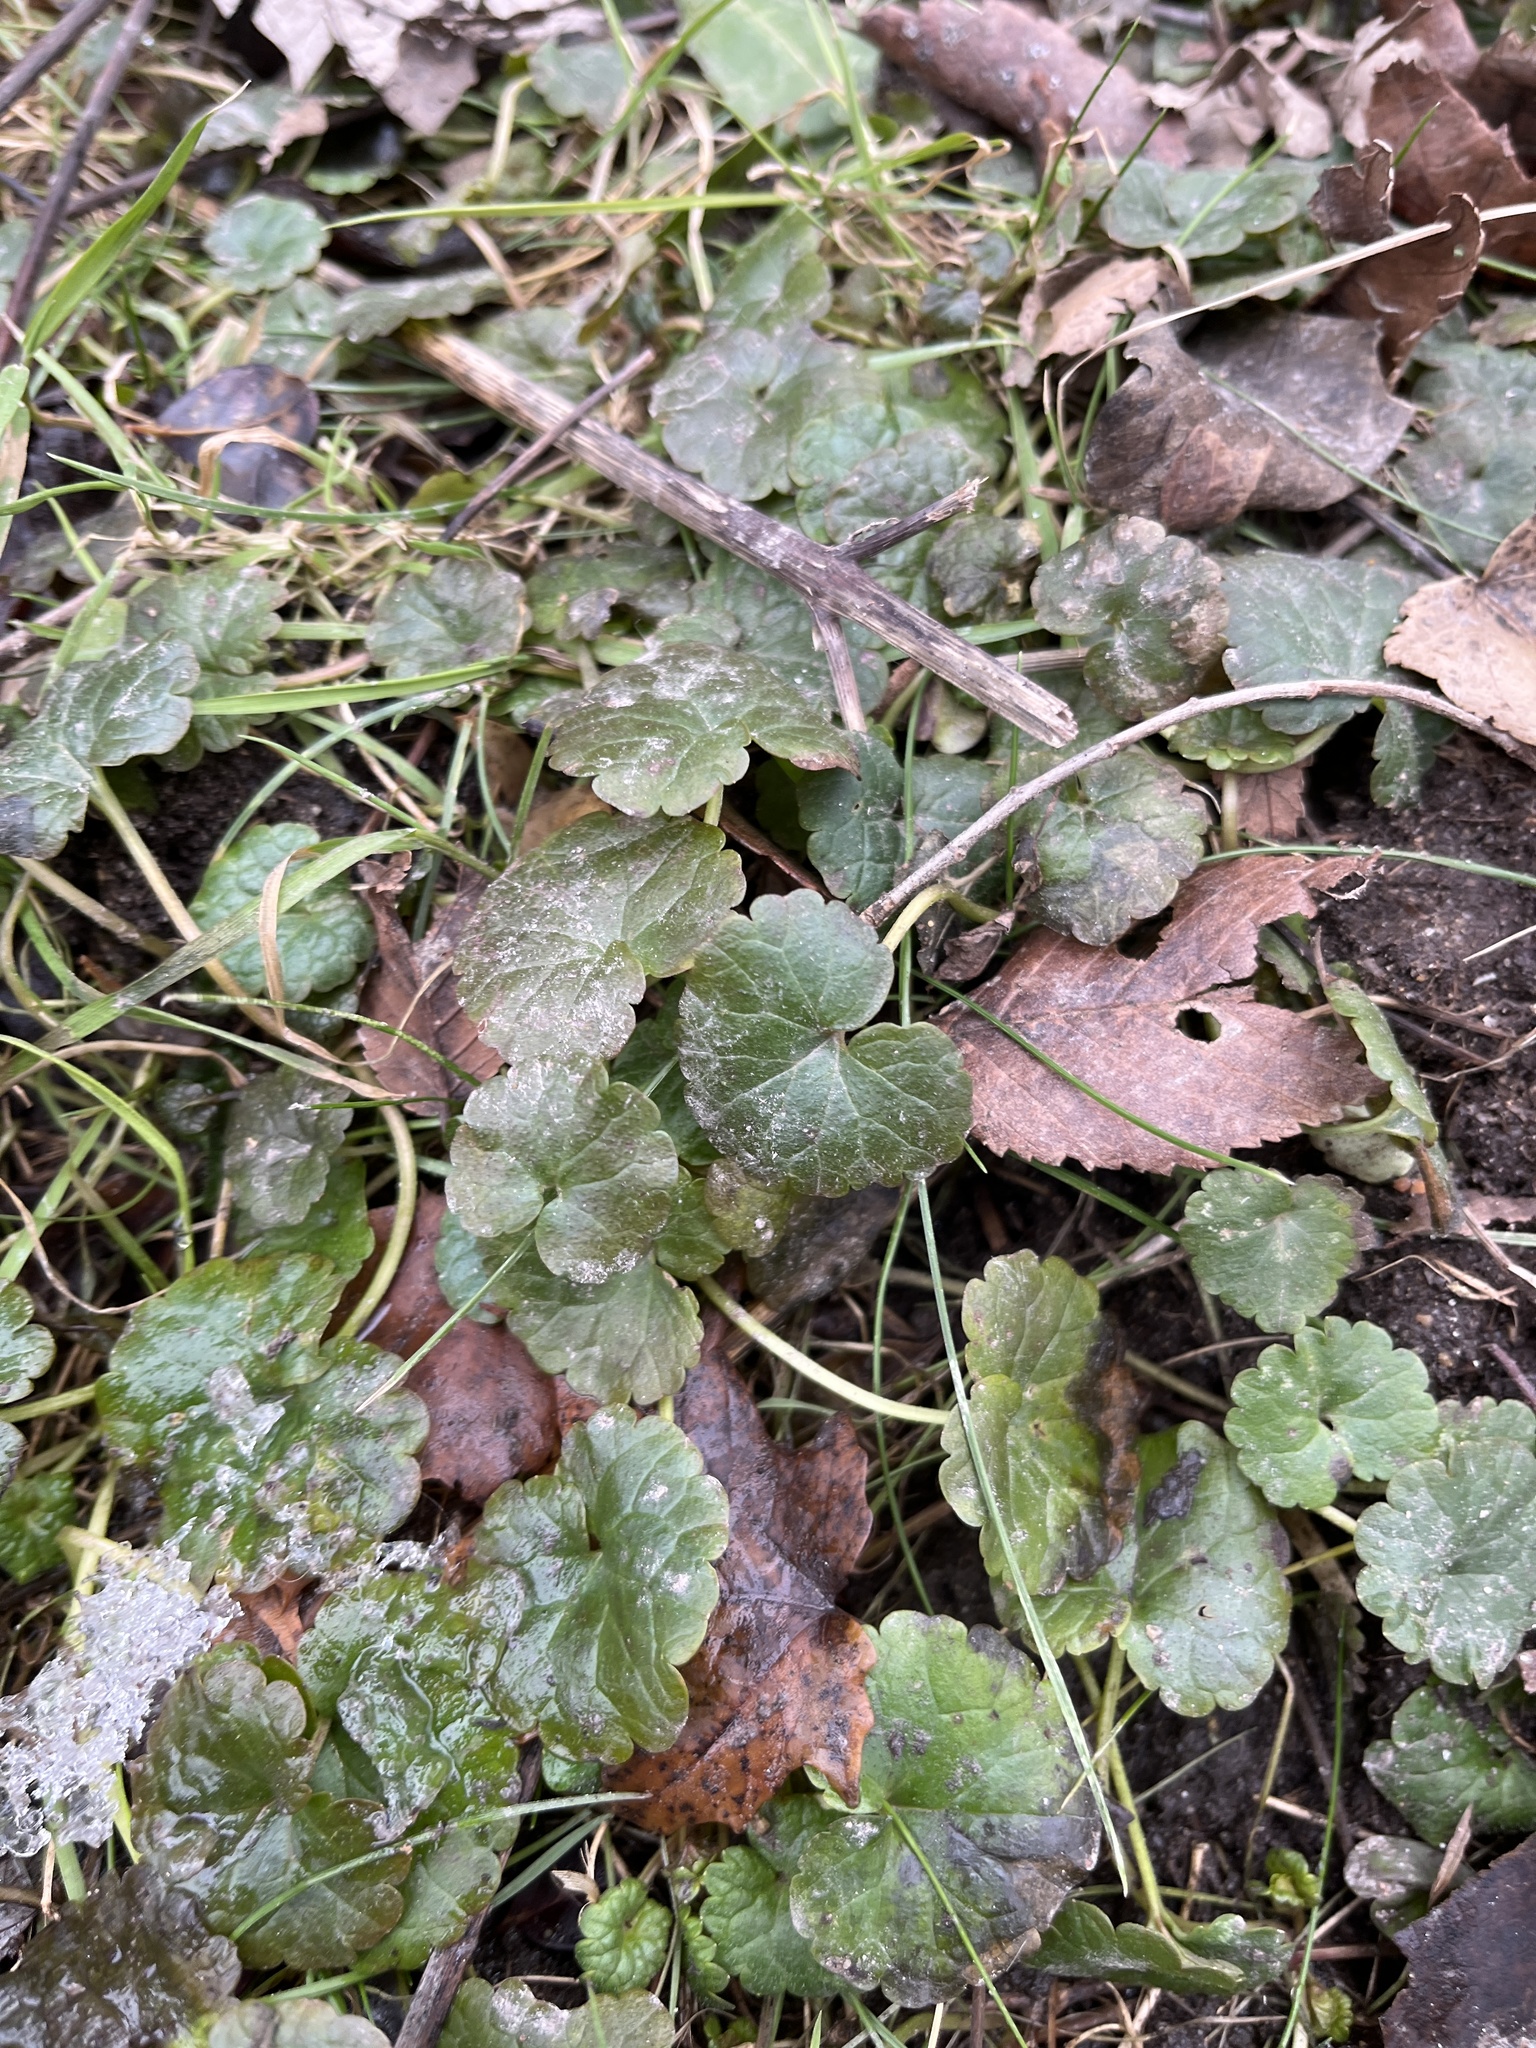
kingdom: Plantae
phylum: Tracheophyta
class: Magnoliopsida
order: Lamiales
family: Lamiaceae
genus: Glechoma
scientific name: Glechoma hederacea
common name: Ground ivy
